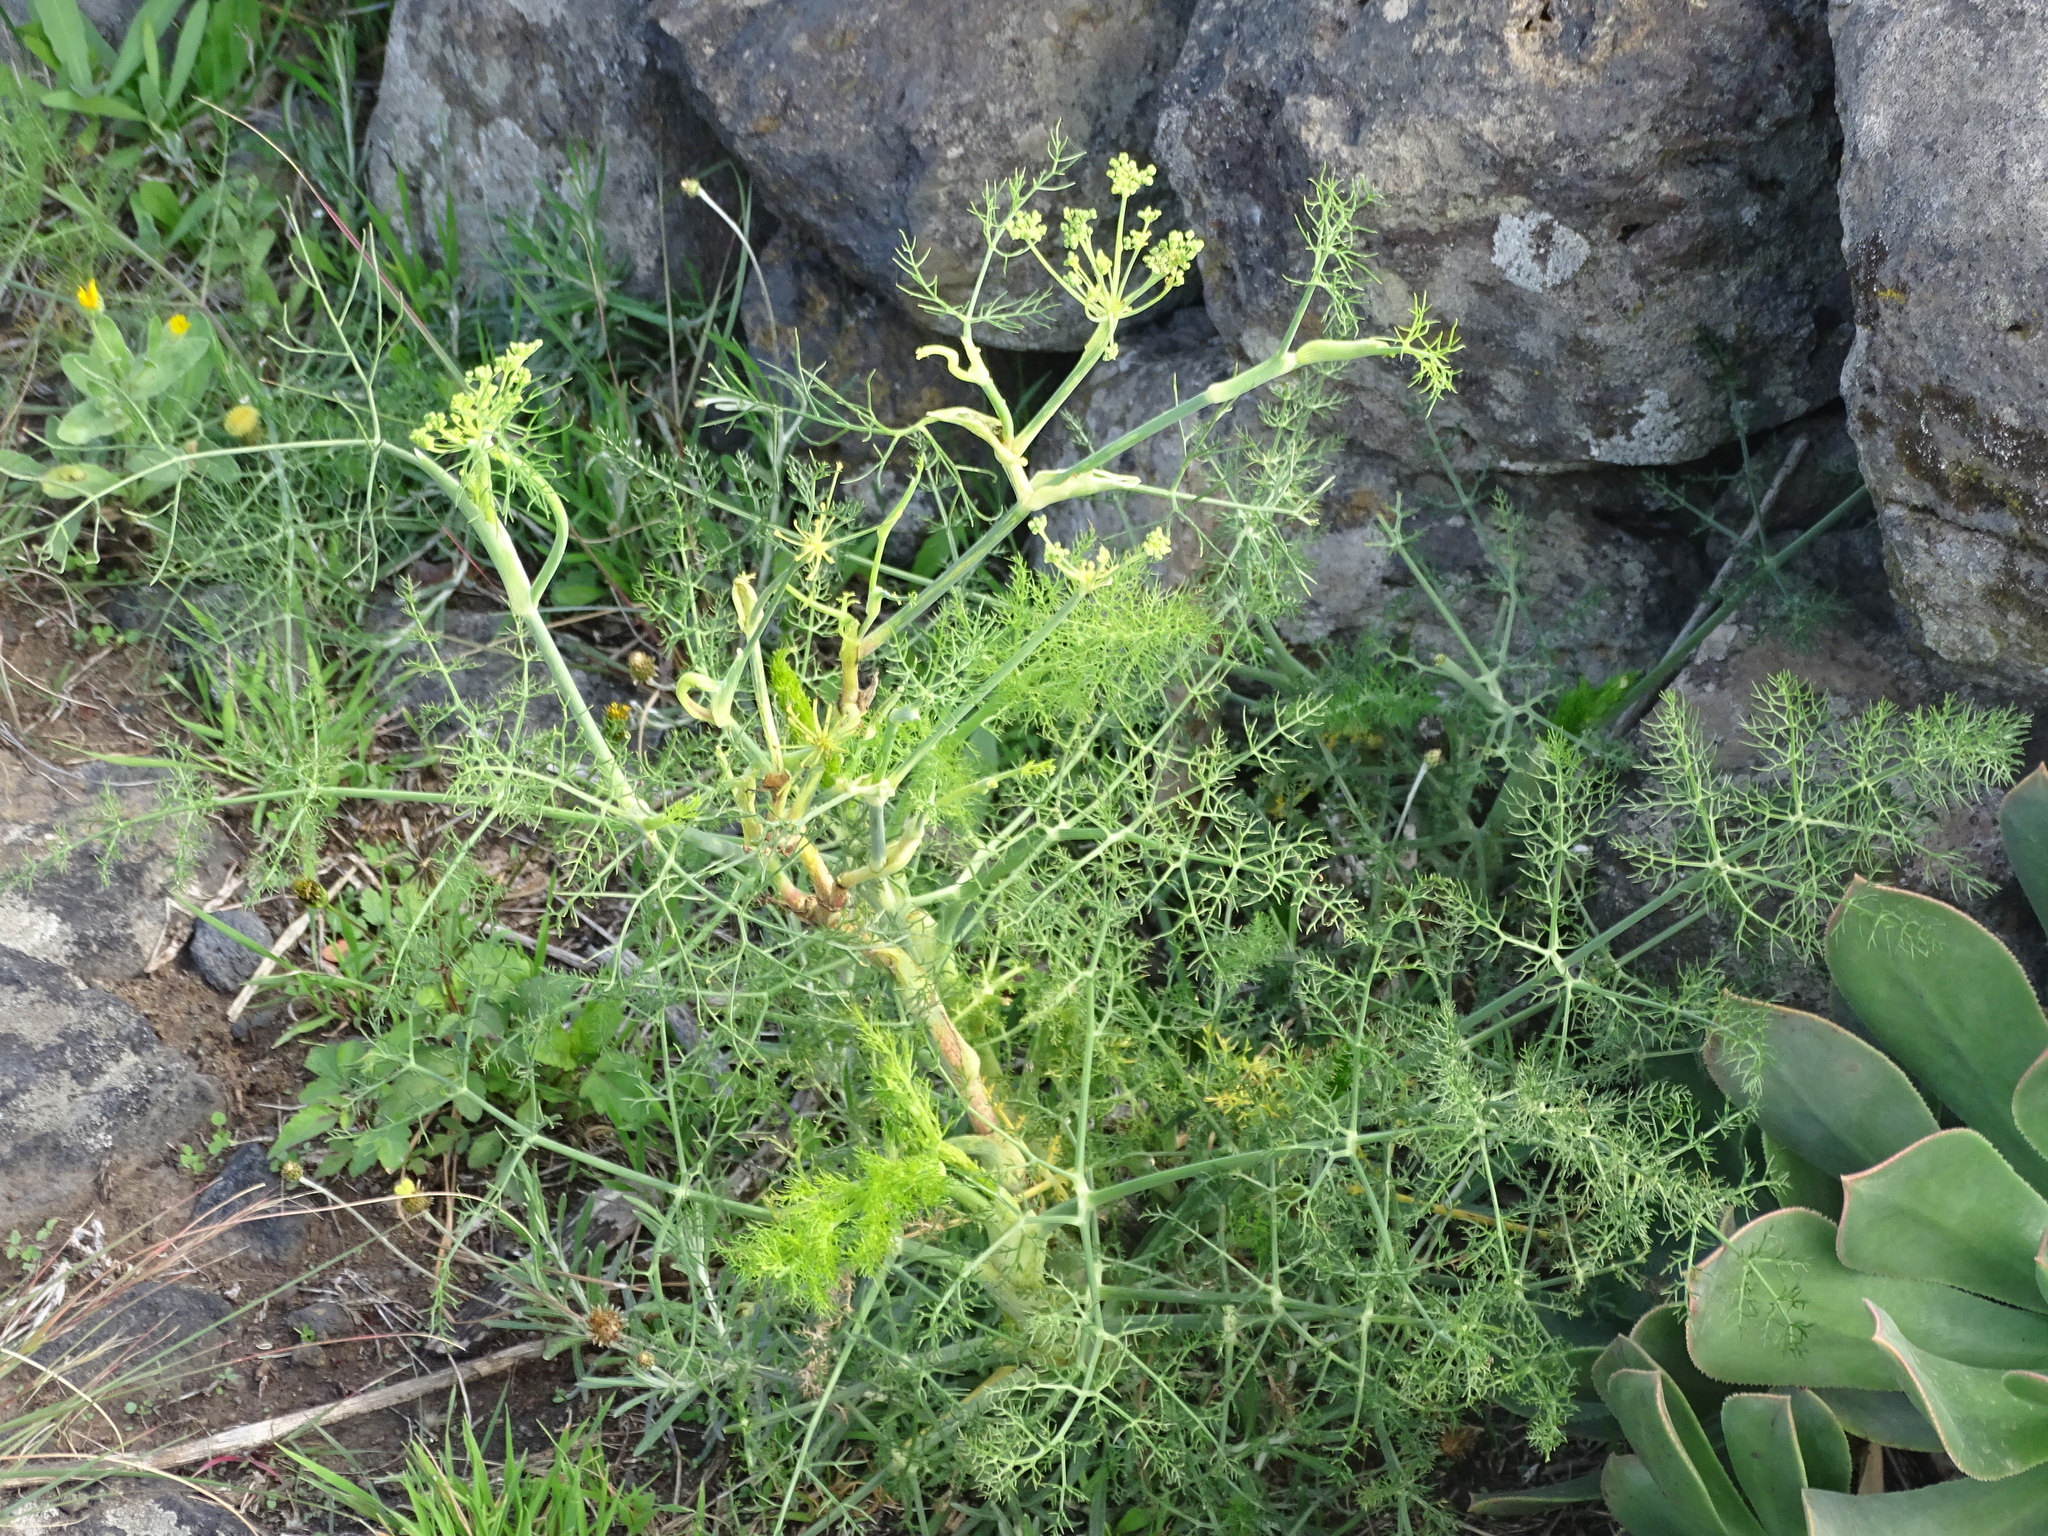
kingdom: Plantae
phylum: Tracheophyta
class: Magnoliopsida
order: Apiales
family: Apiaceae
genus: Foeniculum
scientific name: Foeniculum vulgare
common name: Fennel
